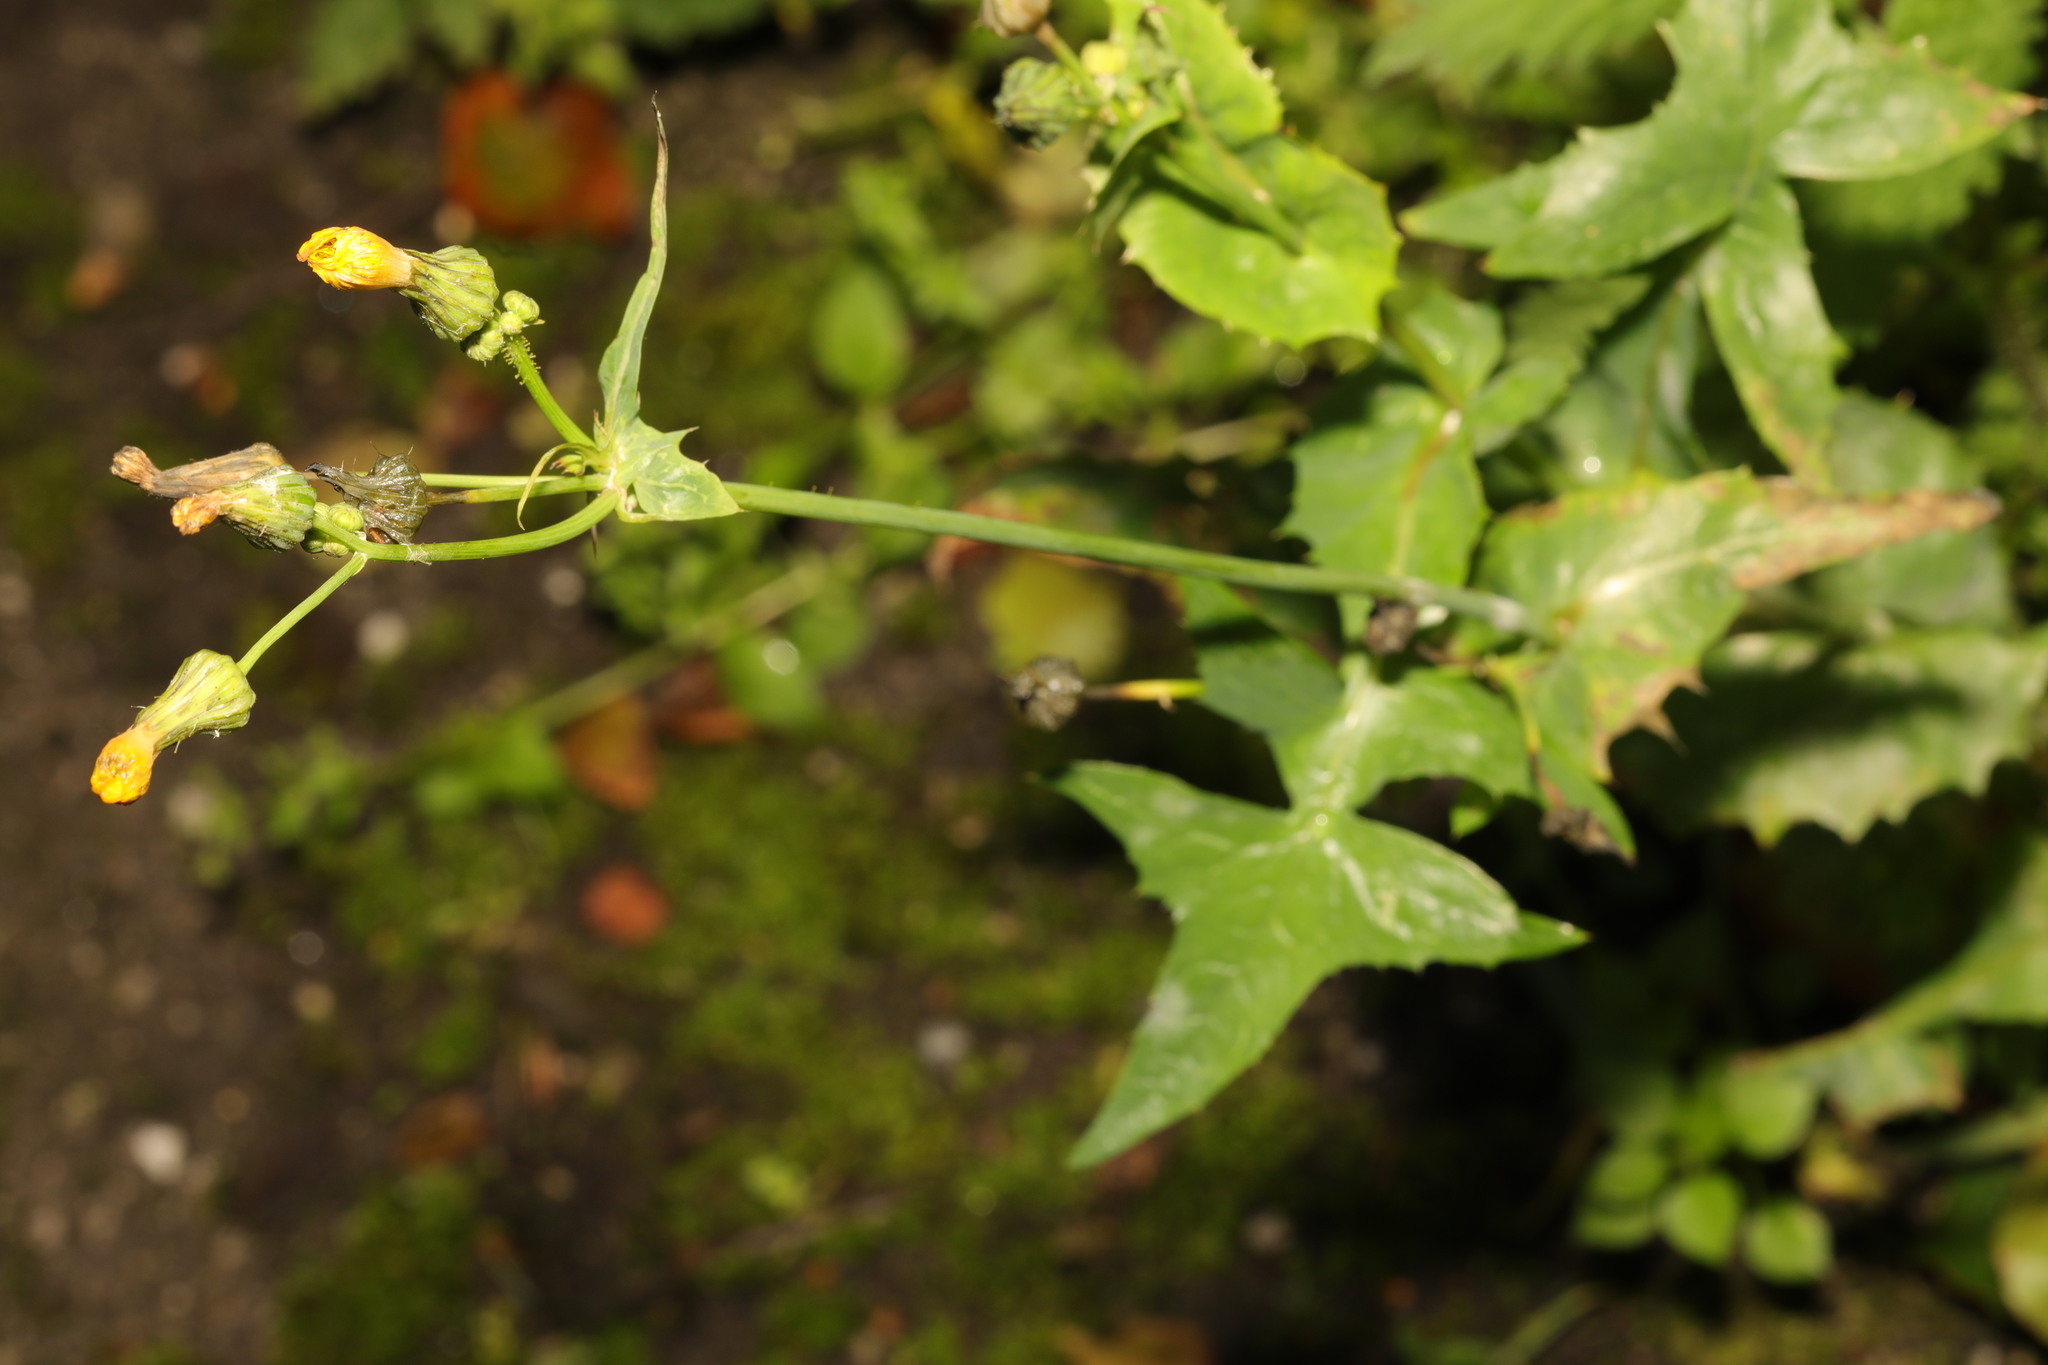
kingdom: Plantae
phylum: Tracheophyta
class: Magnoliopsida
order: Asterales
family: Asteraceae
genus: Sonchus
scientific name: Sonchus oleraceus
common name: Common sowthistle
